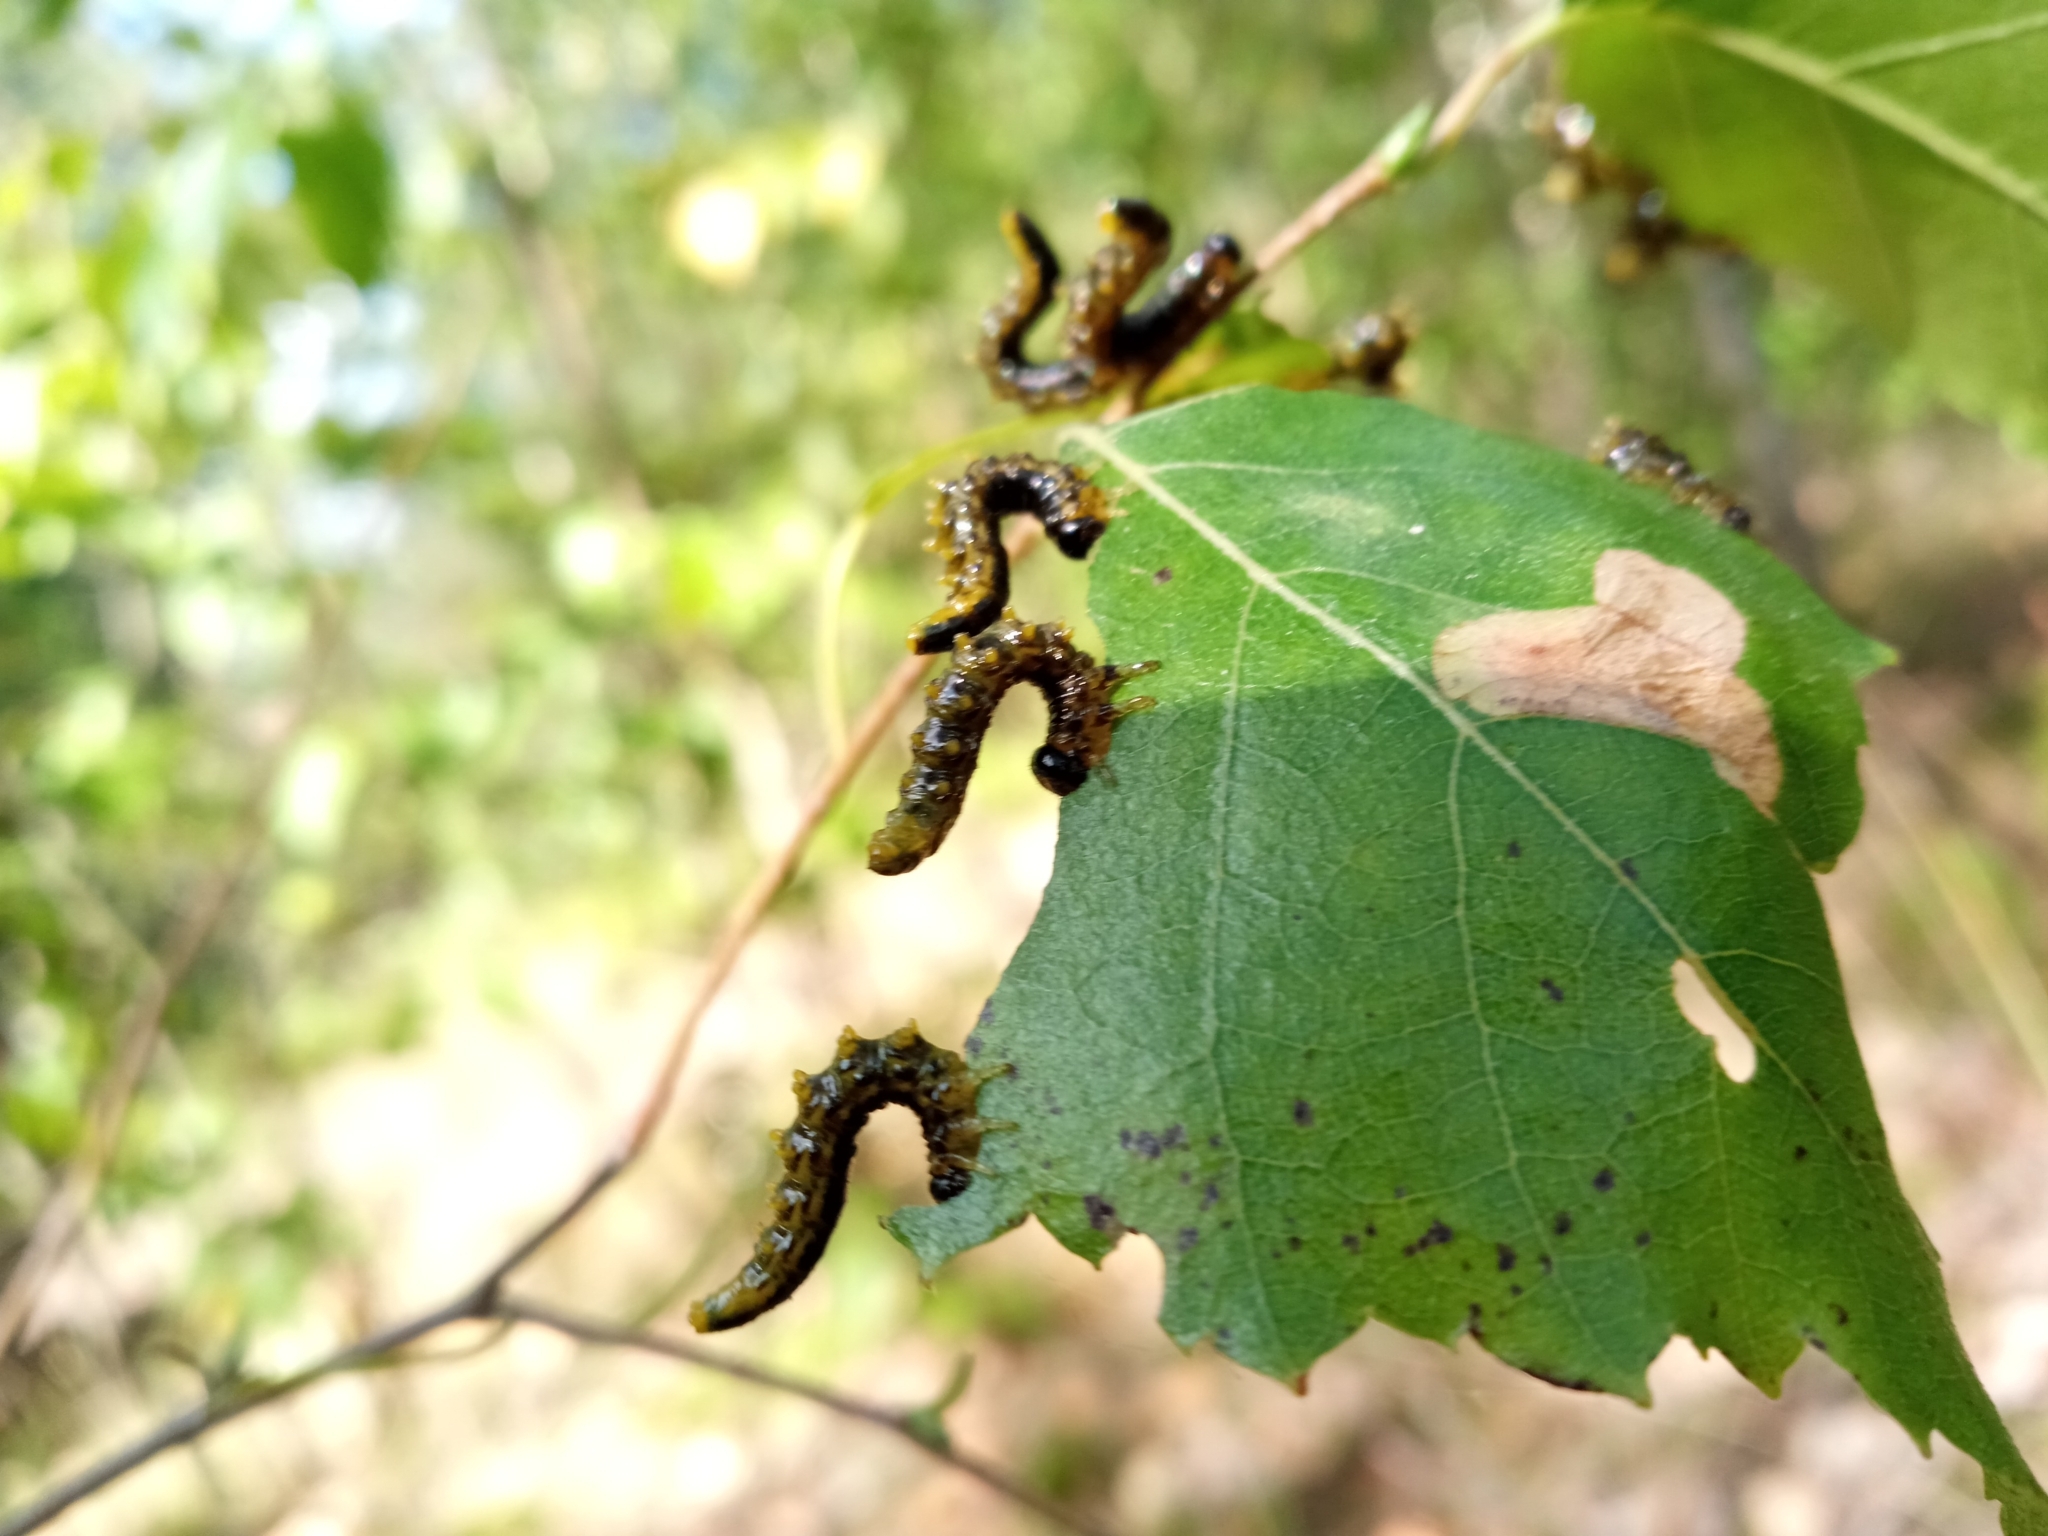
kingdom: Animalia
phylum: Arthropoda
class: Insecta
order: Hymenoptera
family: Tenthredinidae
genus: Craesus
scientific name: Craesus latipes
